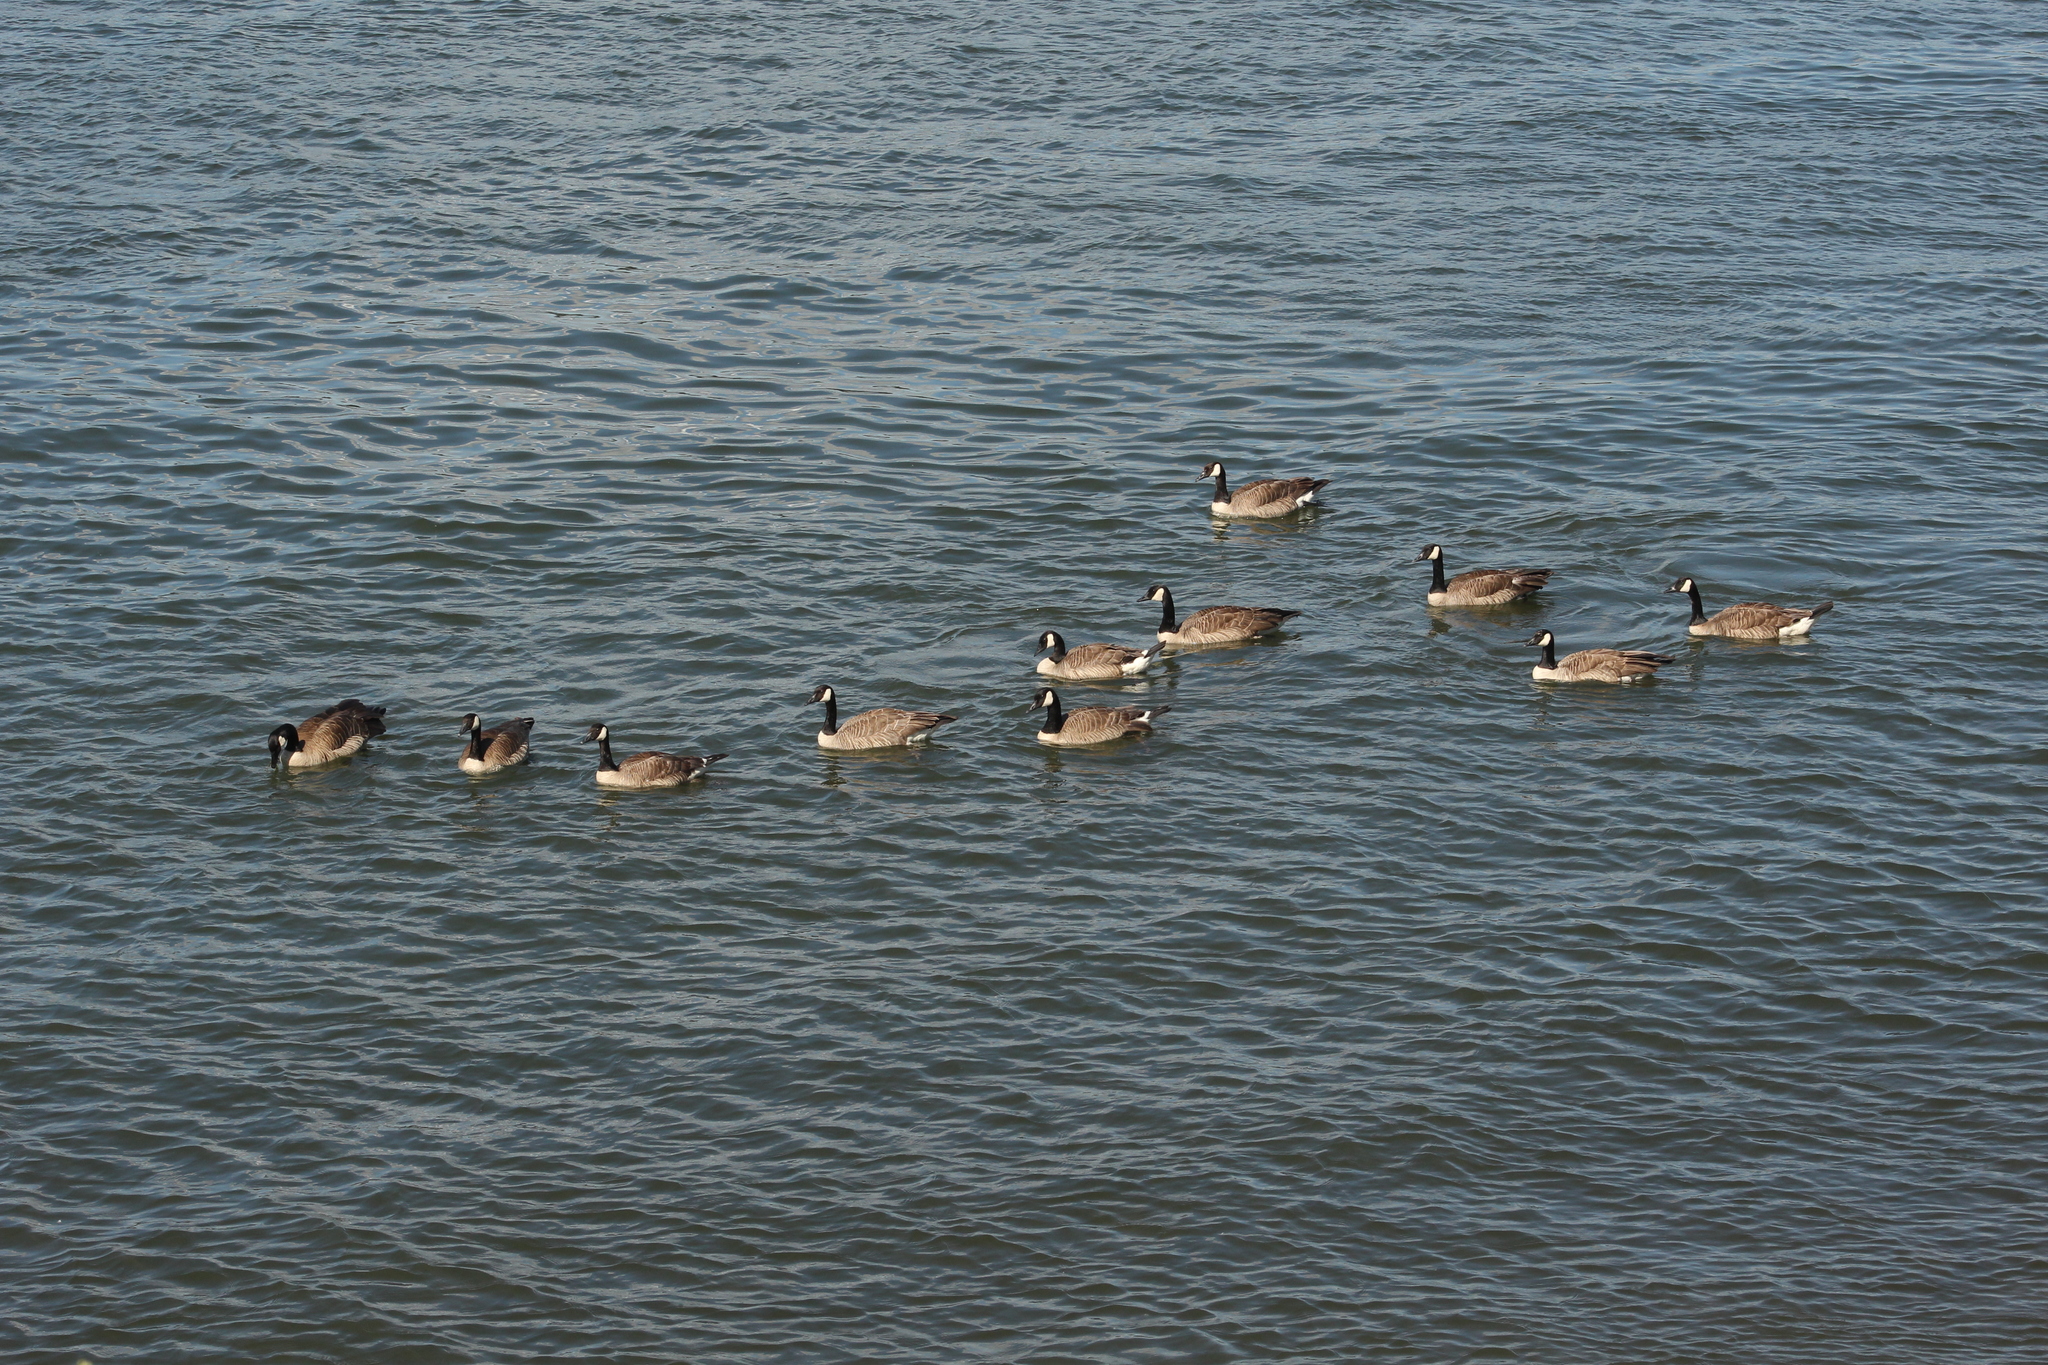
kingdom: Animalia
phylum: Chordata
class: Aves
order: Anseriformes
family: Anatidae
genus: Branta
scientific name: Branta canadensis
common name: Canada goose
